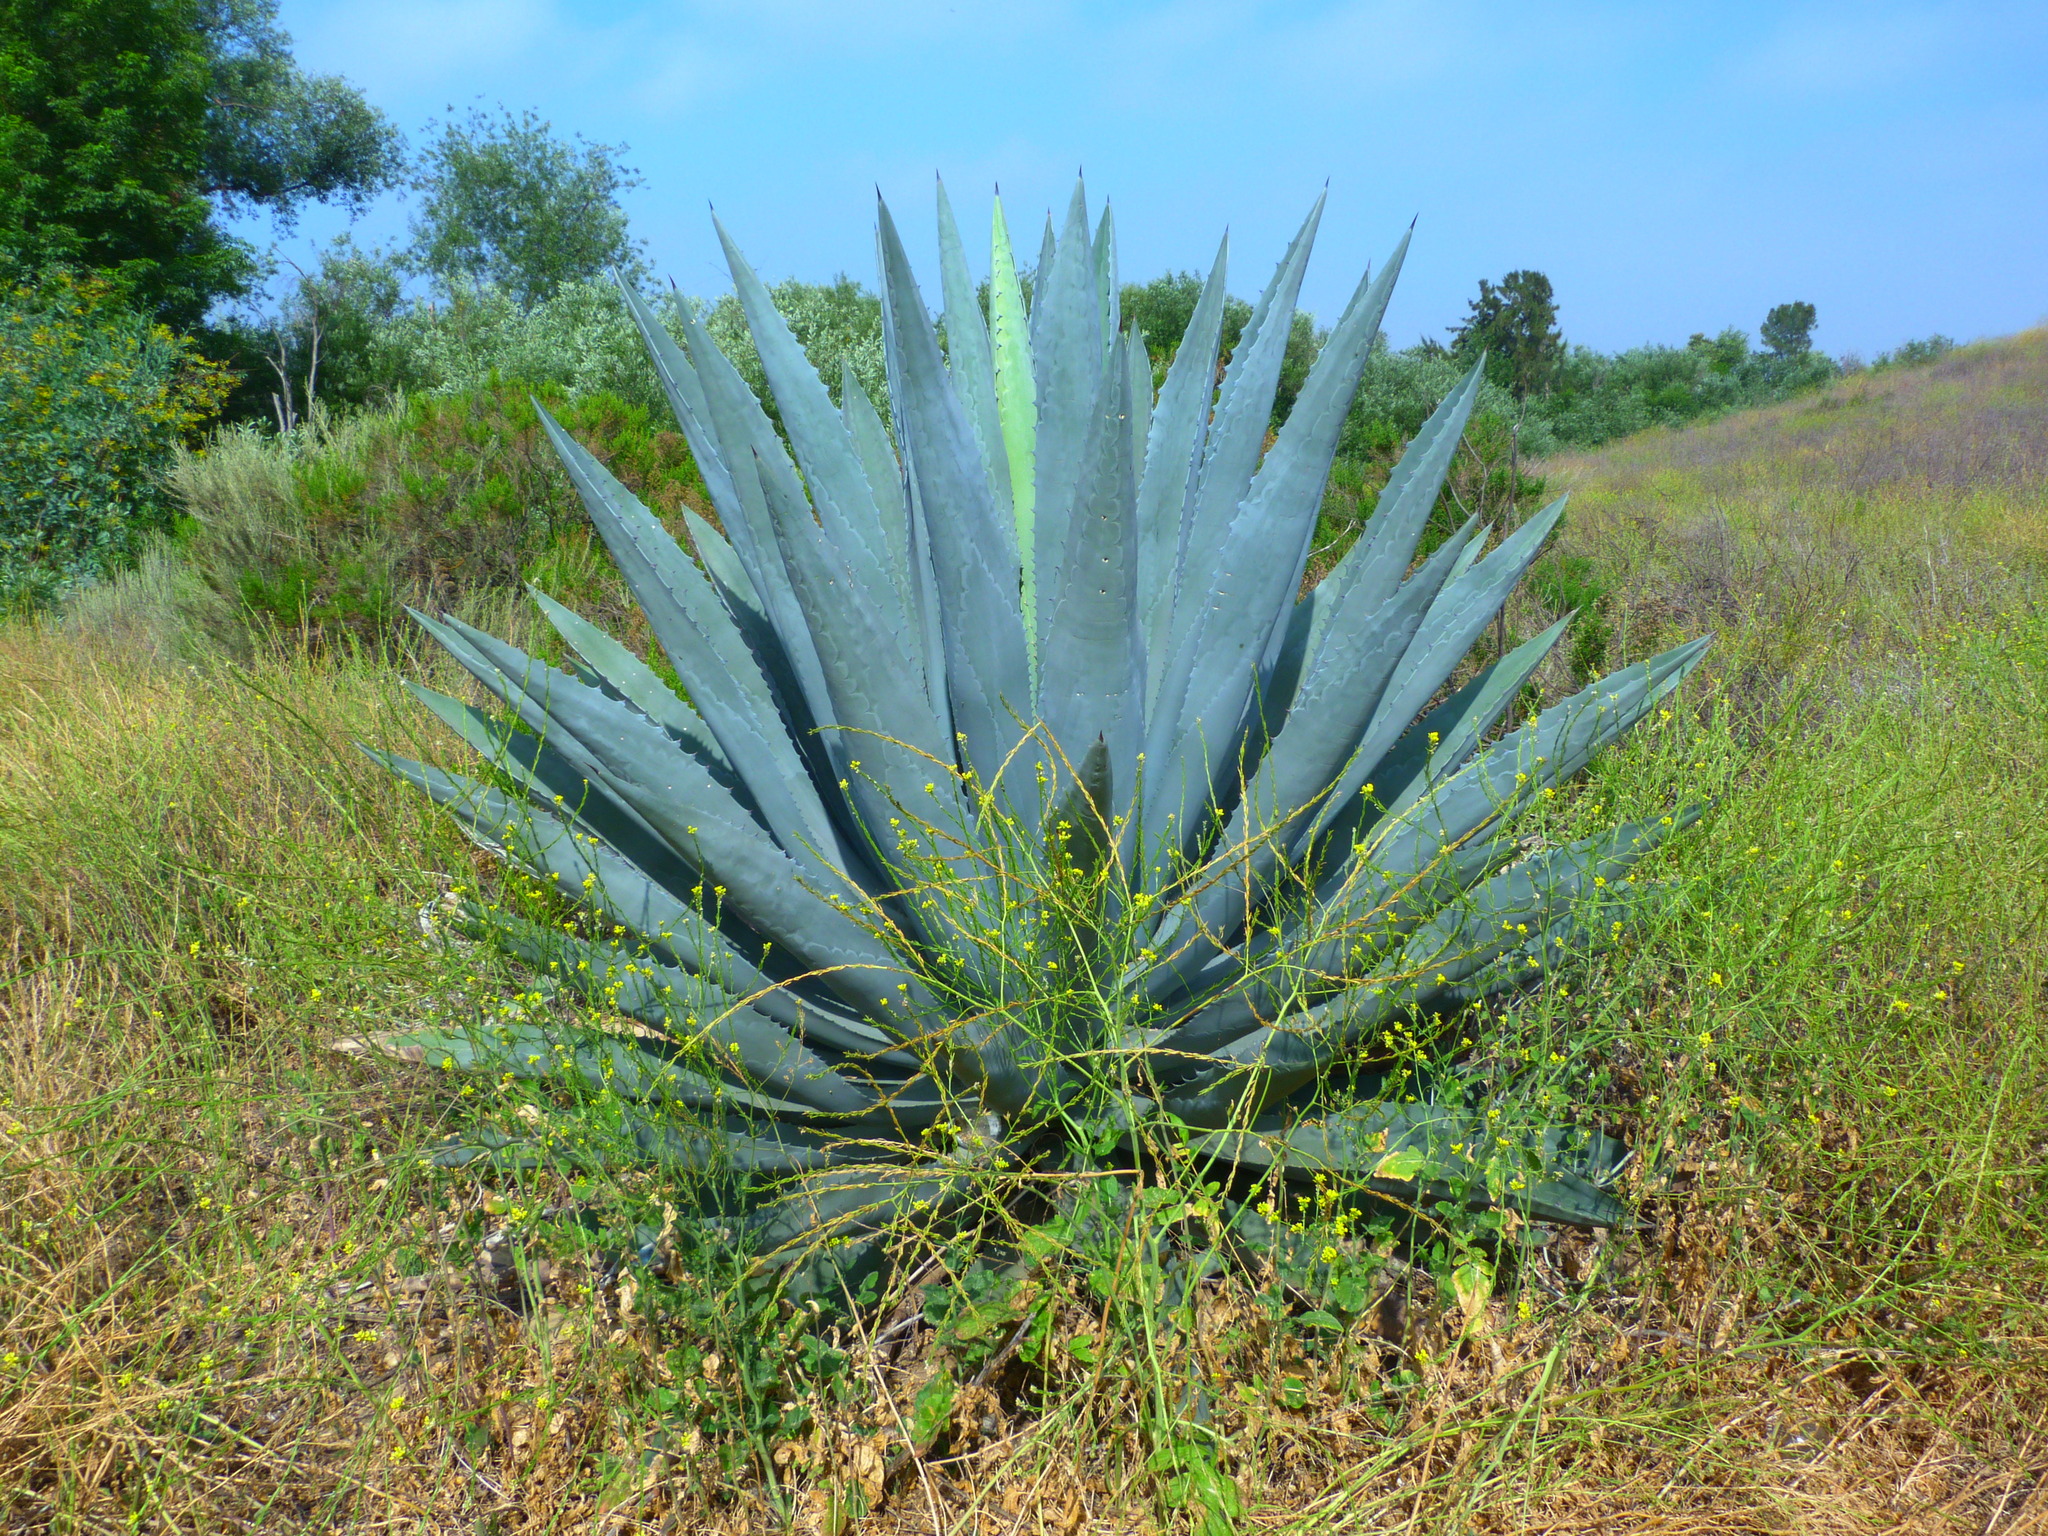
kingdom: Plantae
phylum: Tracheophyta
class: Liliopsida
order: Asparagales
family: Asparagaceae
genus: Agave
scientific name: Agave americana
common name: Centuryplant
